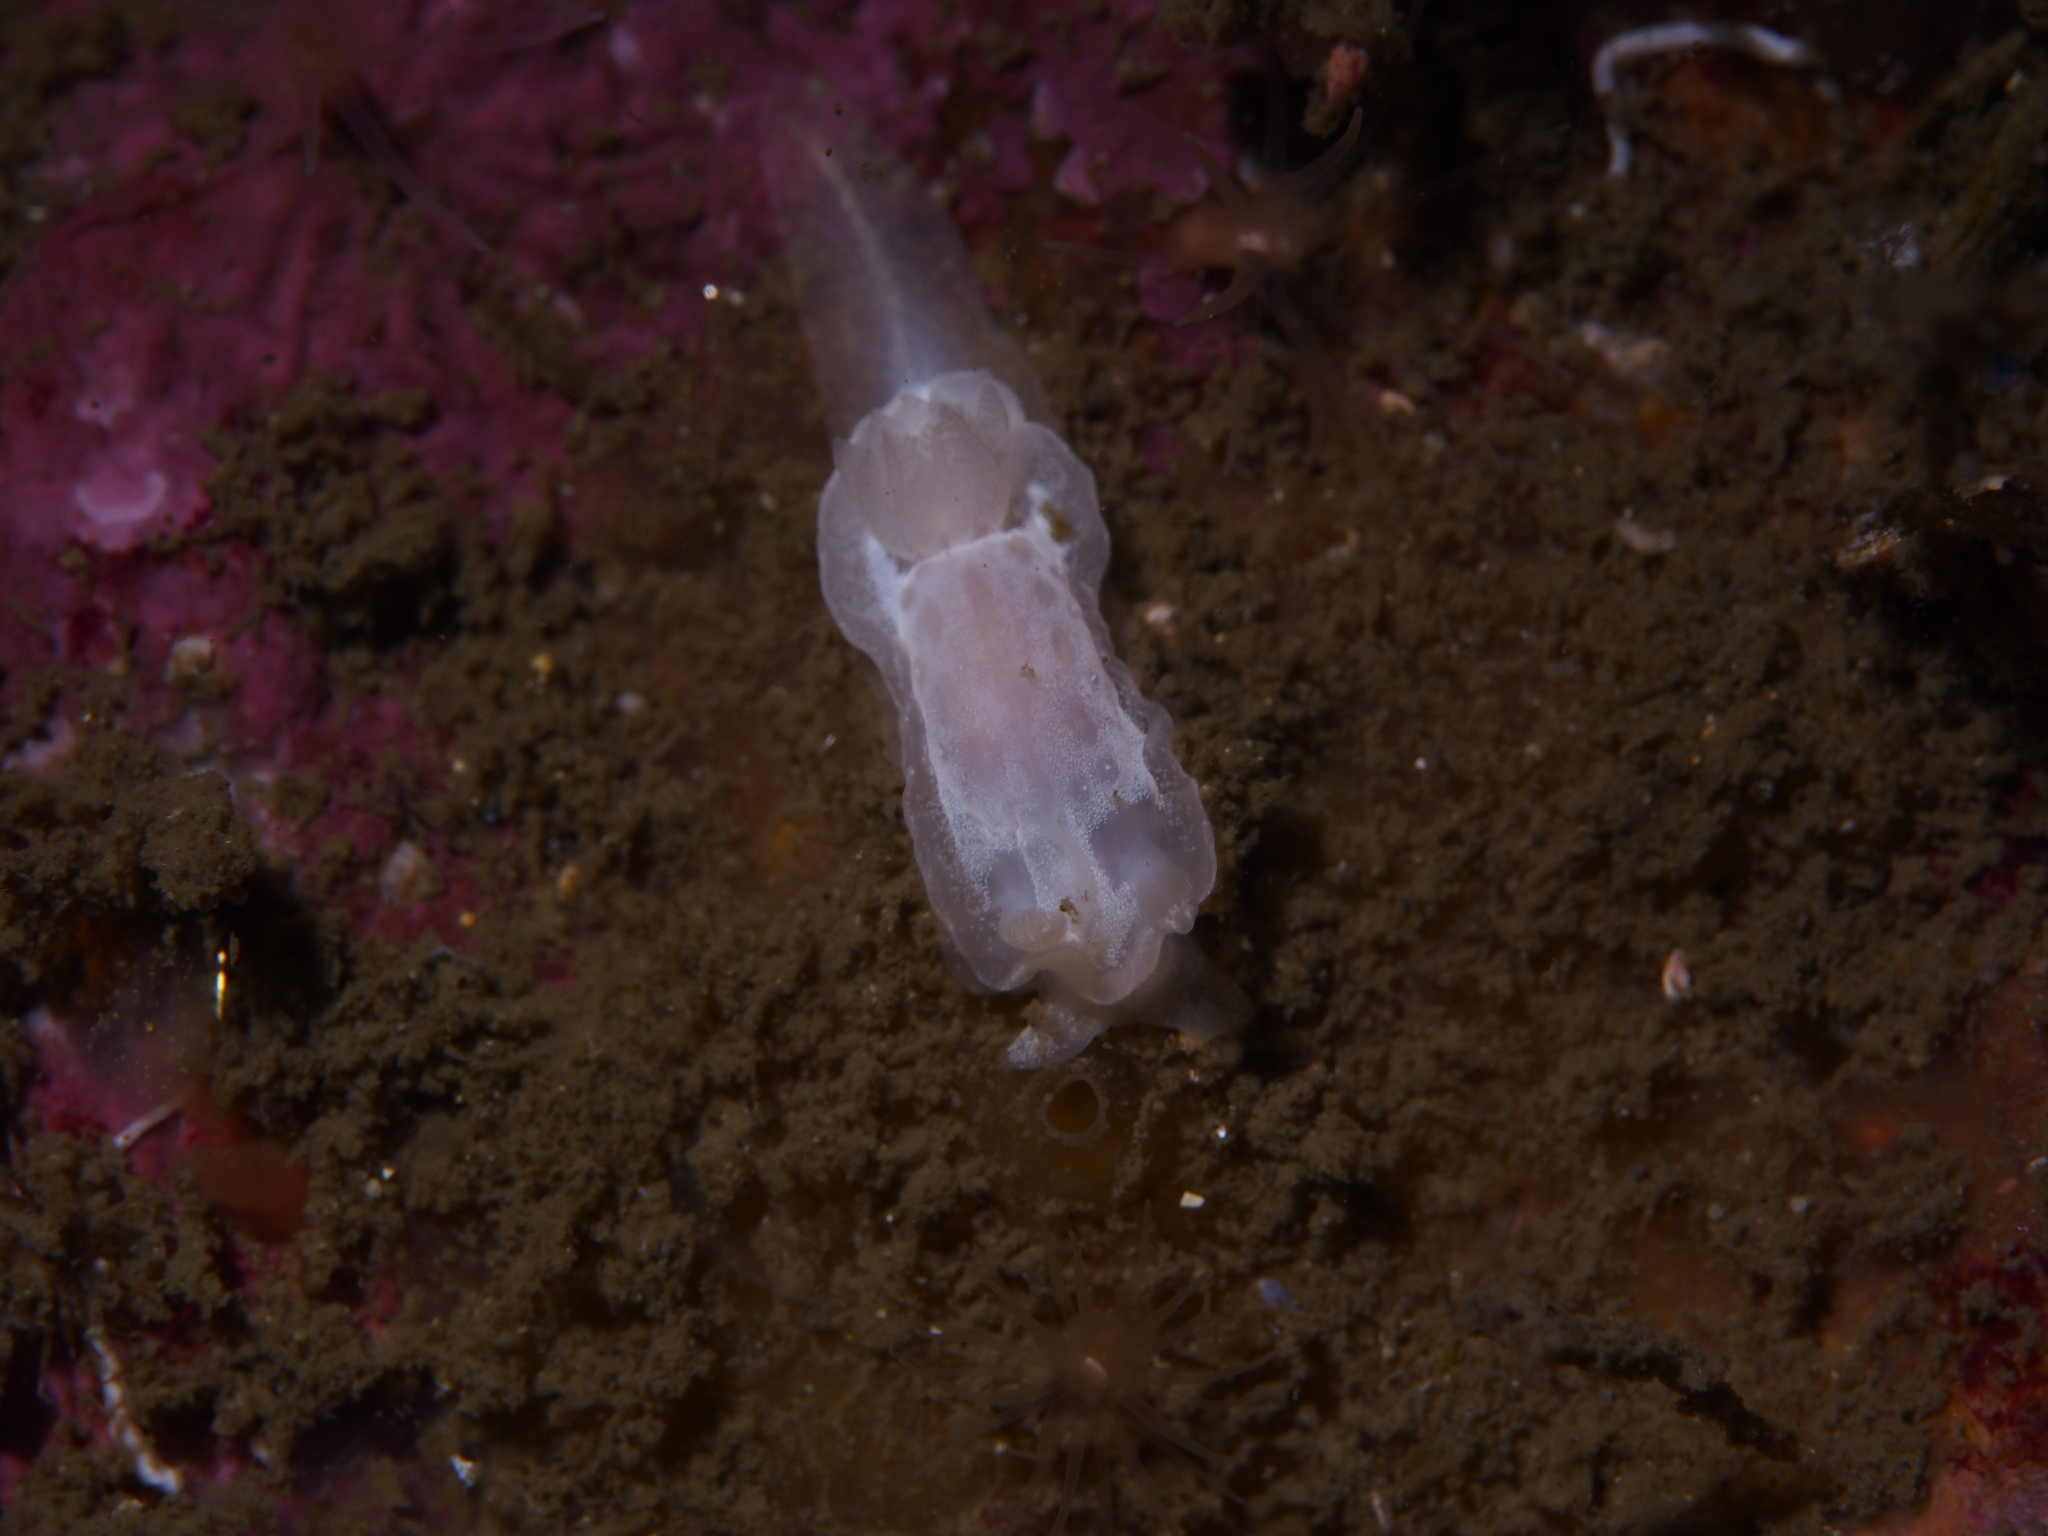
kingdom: Animalia
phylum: Mollusca
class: Gastropoda
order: Nudibranchia
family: Goniodorididae
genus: Okenia
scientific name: Okenia
